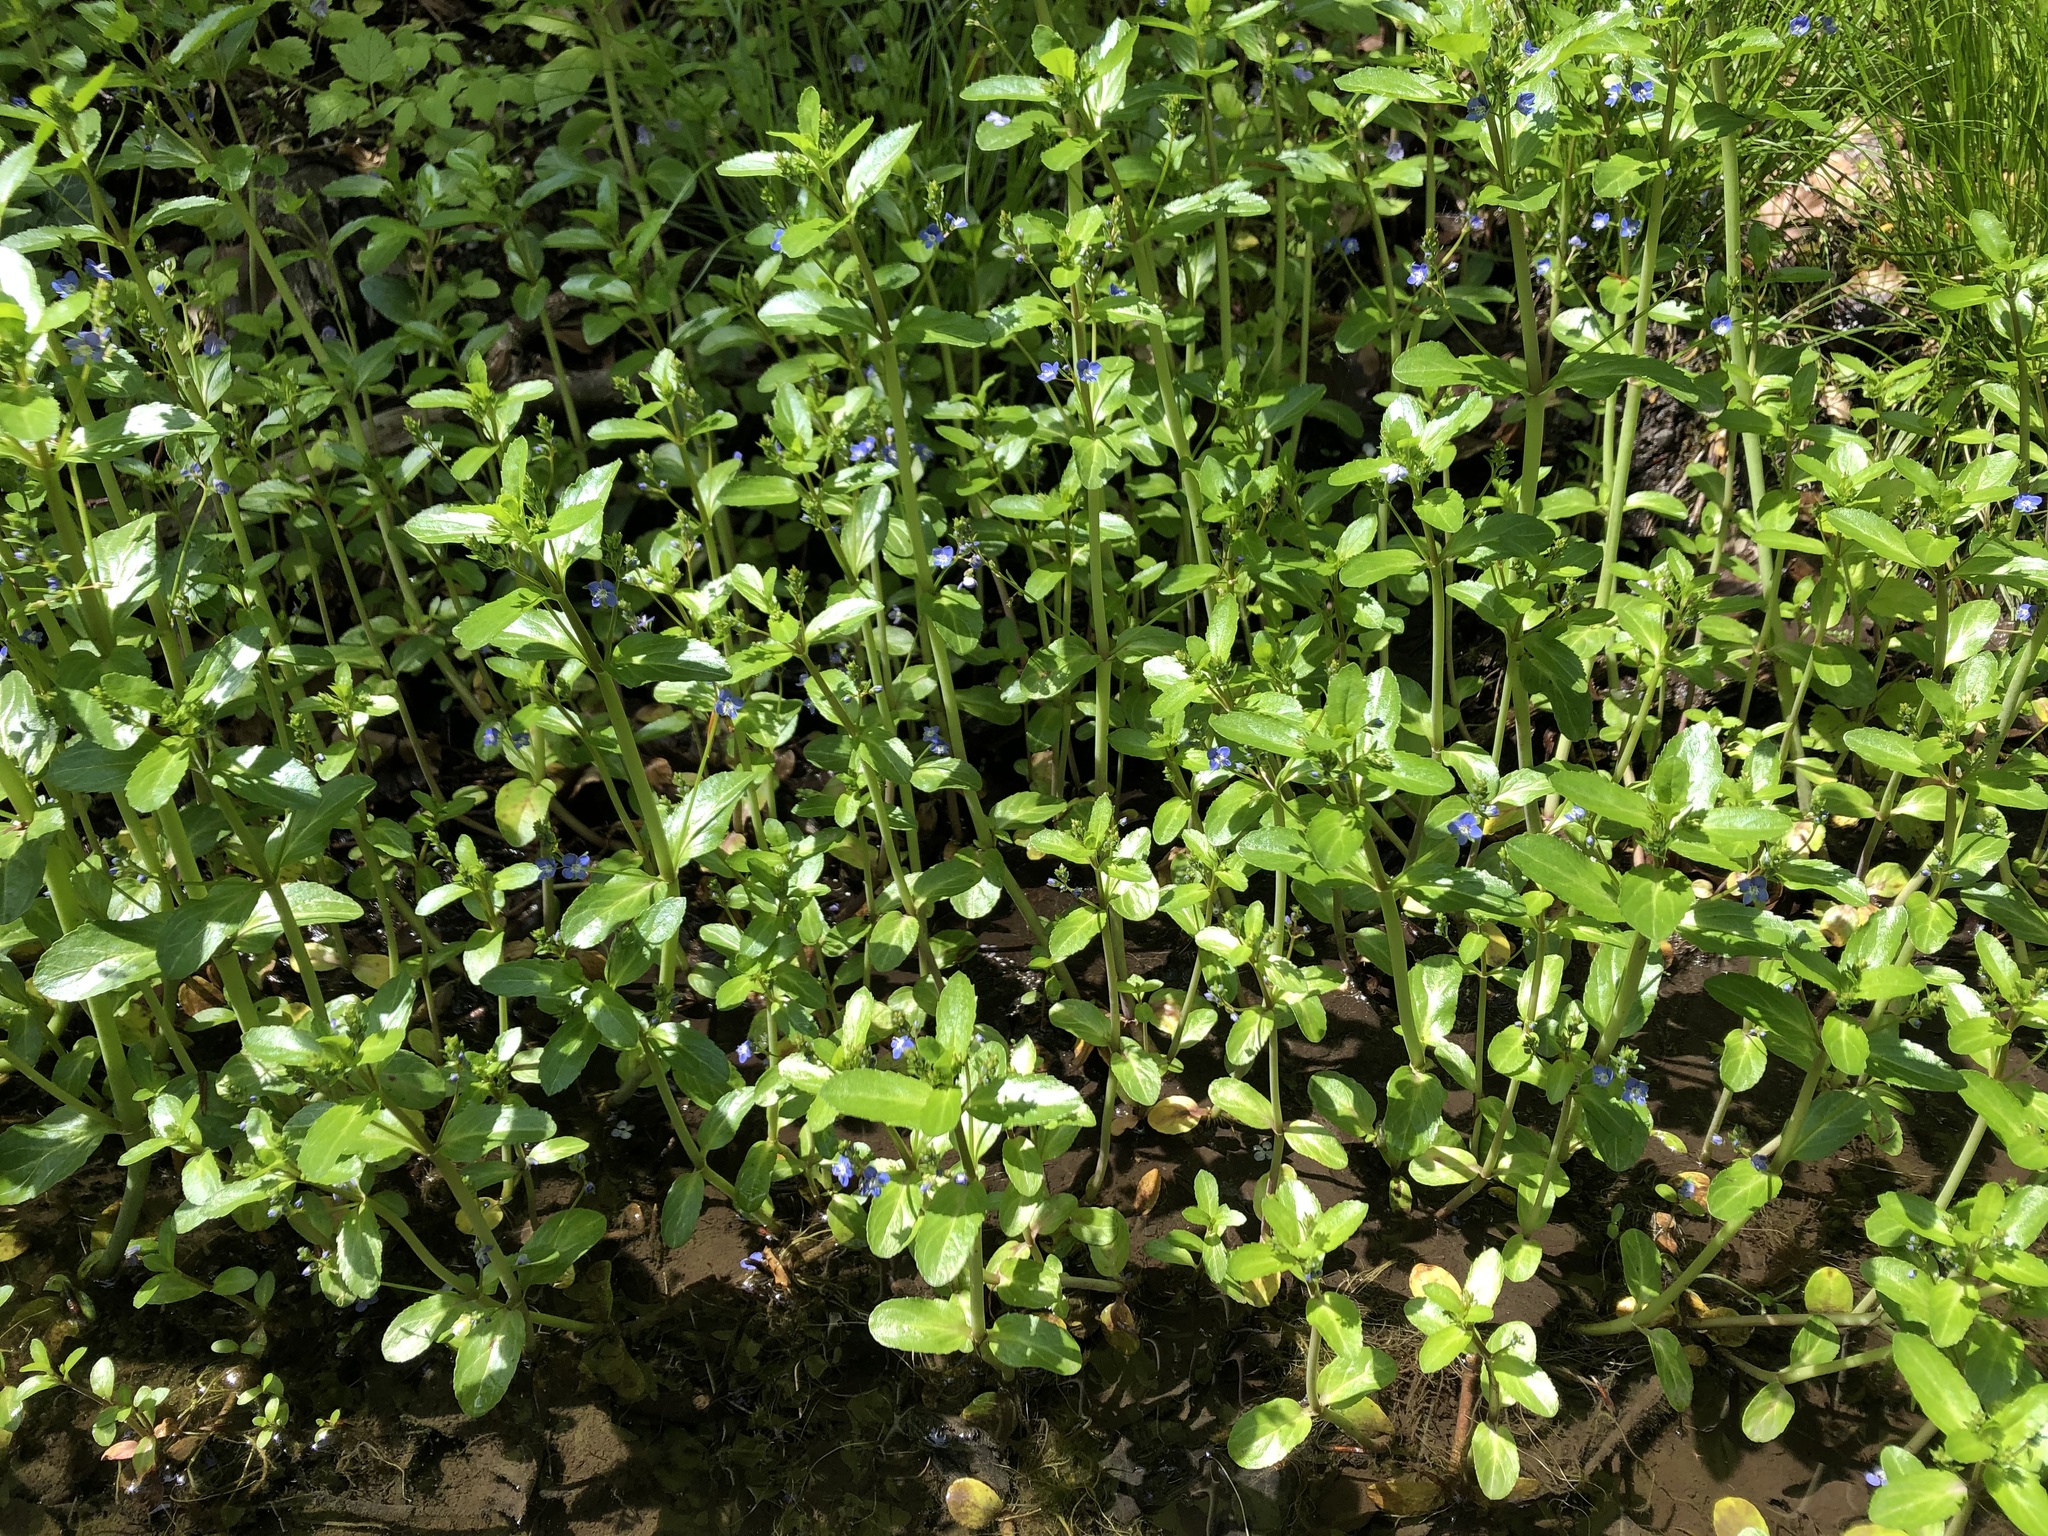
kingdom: Plantae
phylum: Tracheophyta
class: Magnoliopsida
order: Lamiales
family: Plantaginaceae
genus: Veronica
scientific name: Veronica beccabunga
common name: Brooklime
